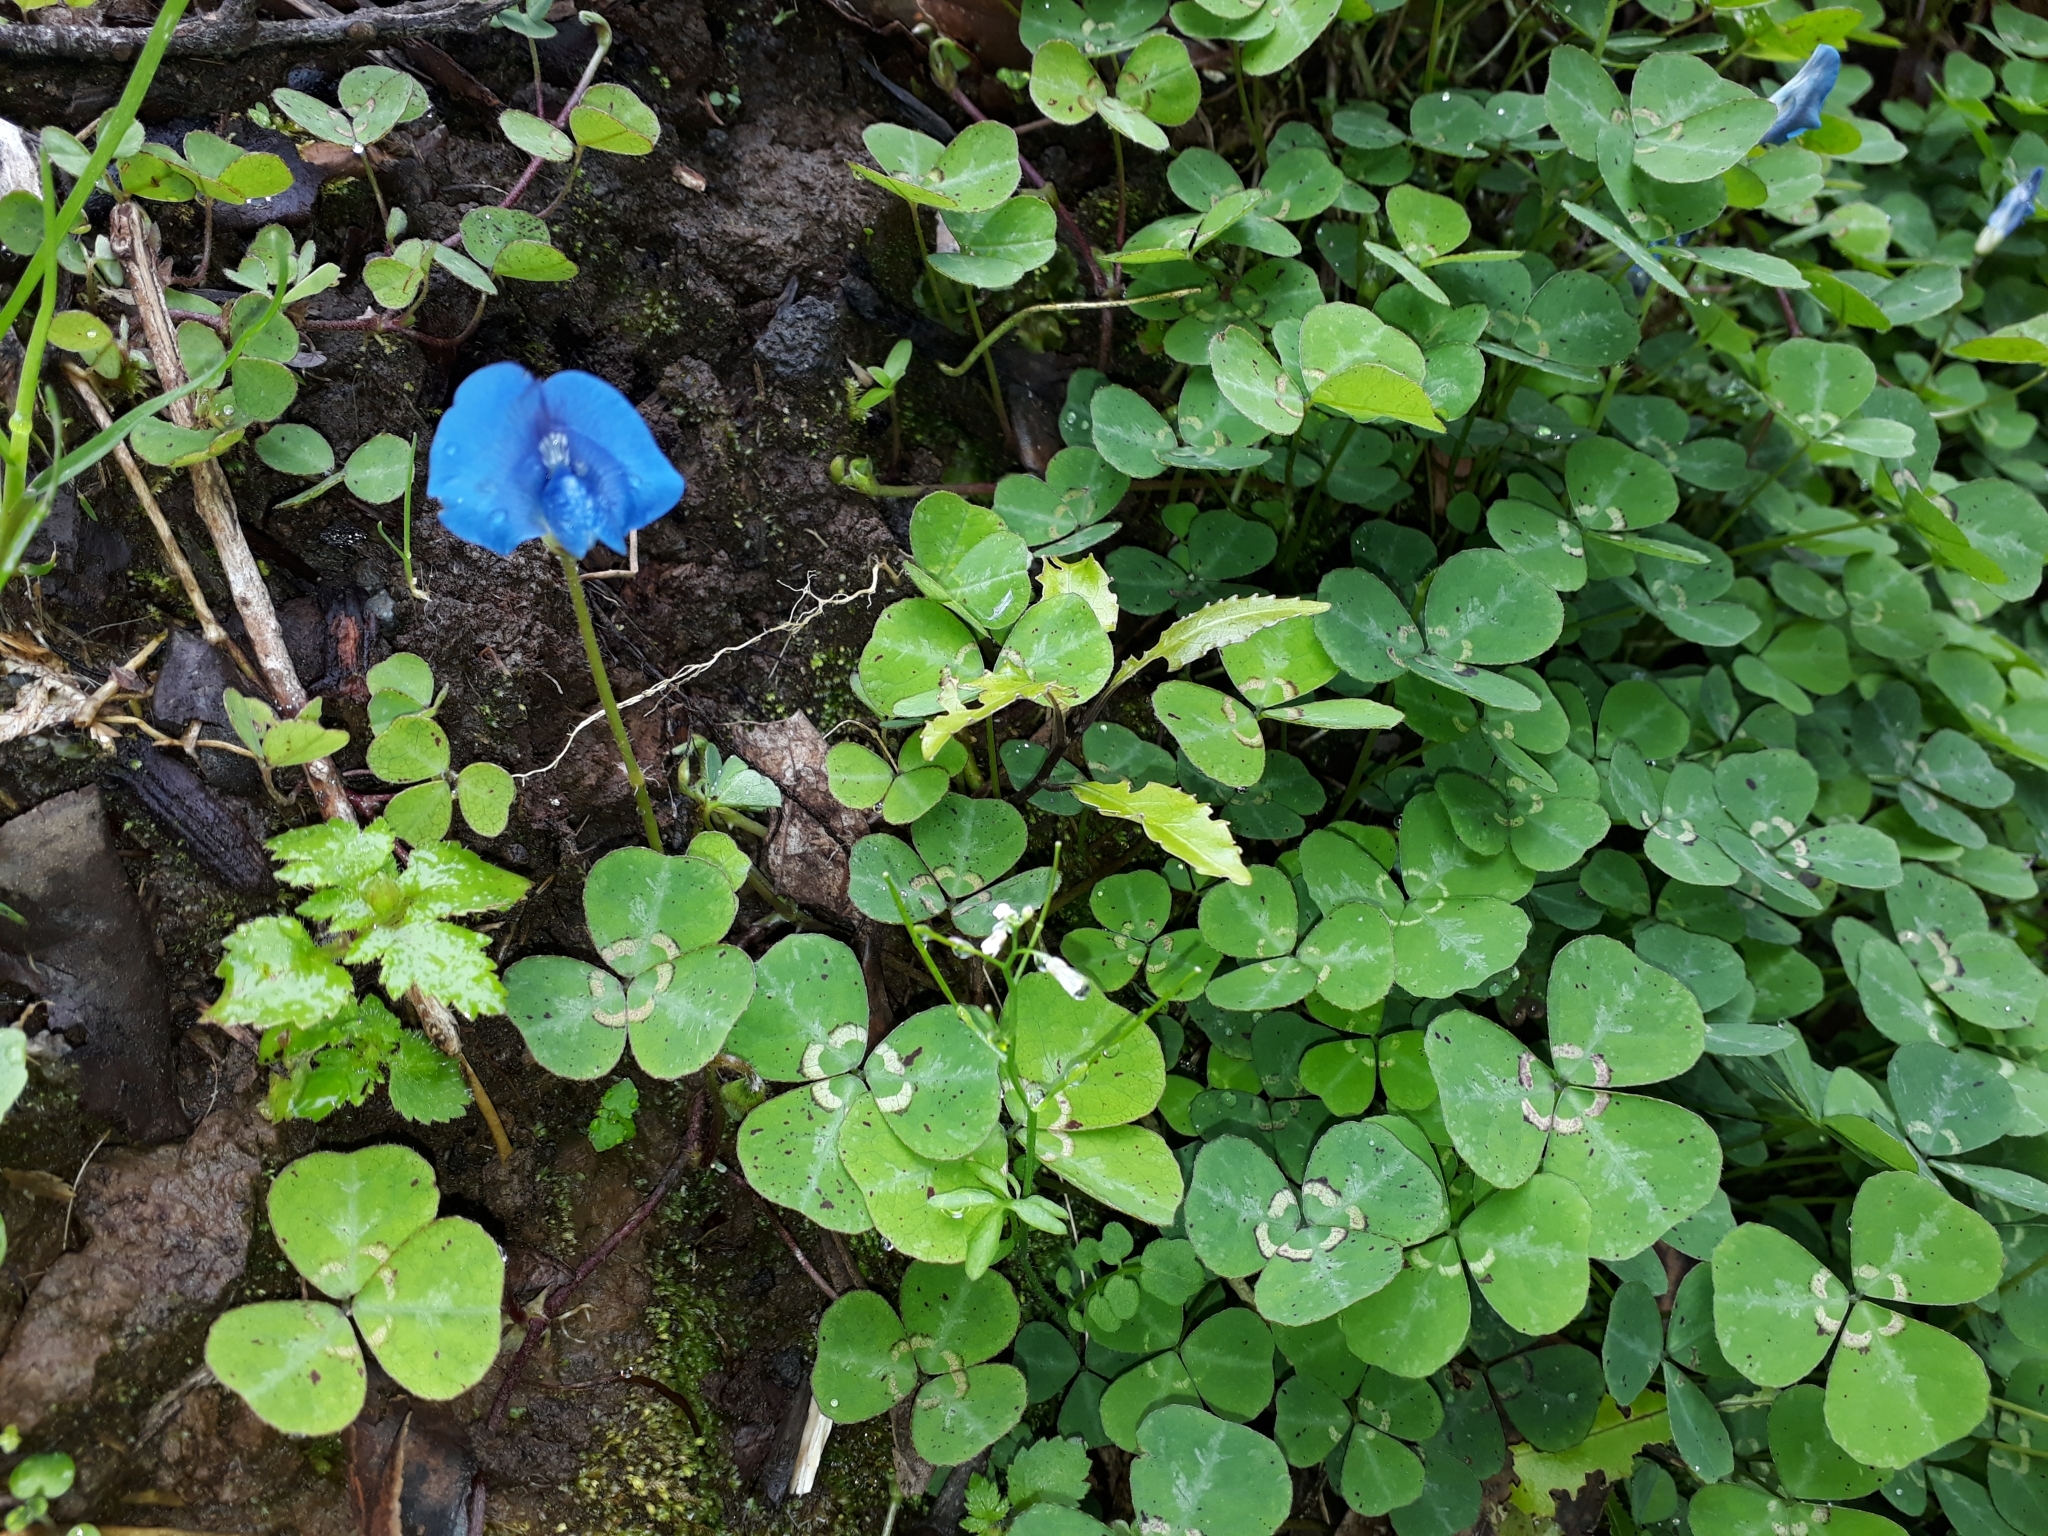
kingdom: Plantae
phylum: Tracheophyta
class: Magnoliopsida
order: Fabales
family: Fabaceae
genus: Parochetus
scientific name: Parochetus communis
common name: Blue oxalis
